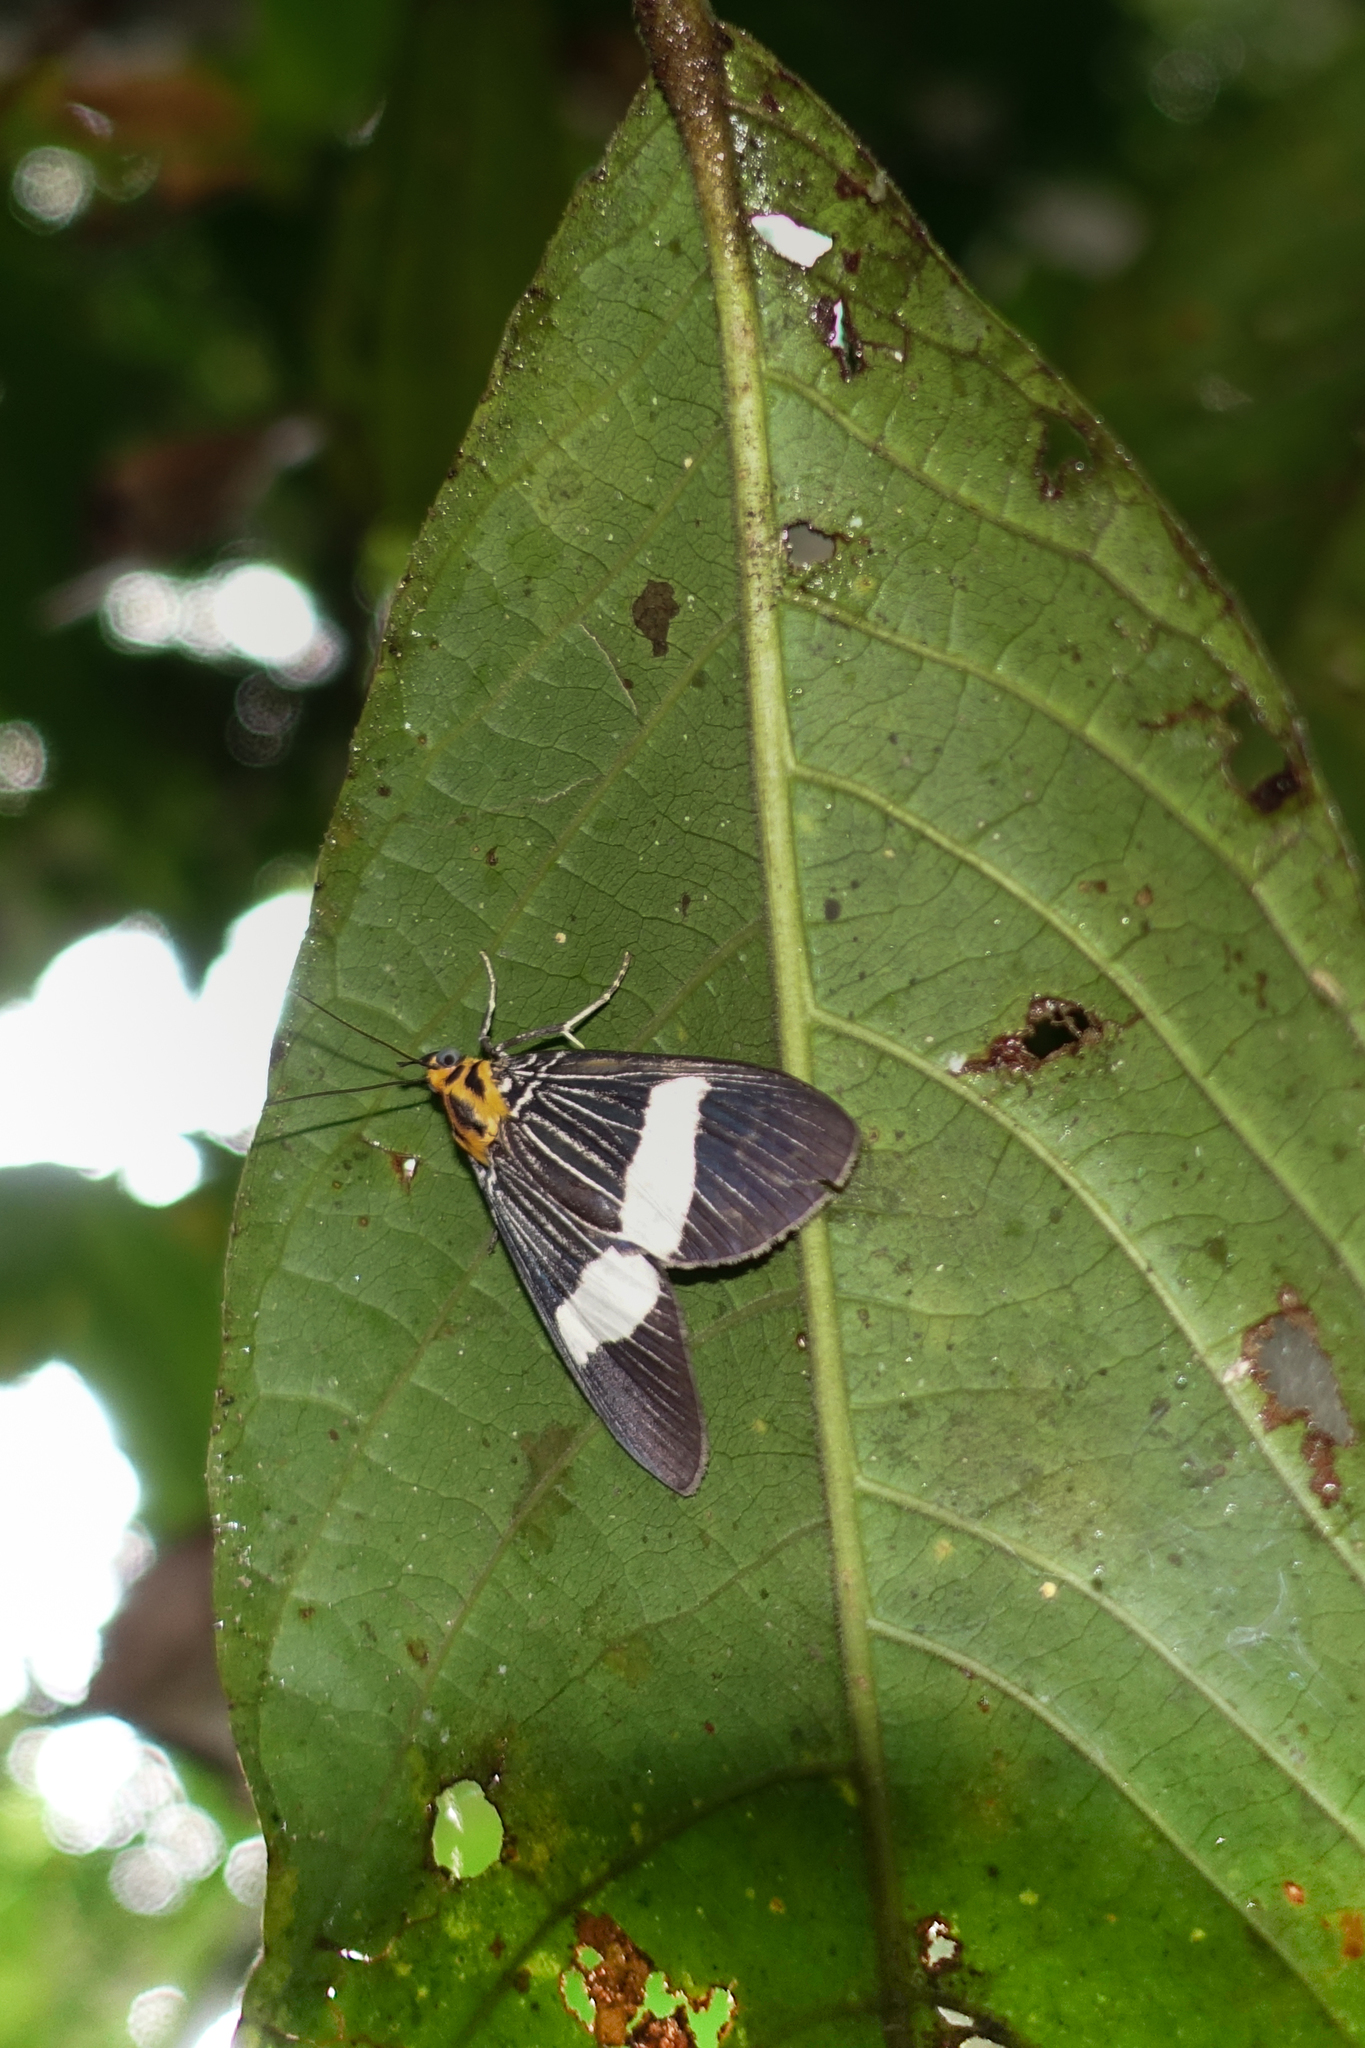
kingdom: Animalia
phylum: Arthropoda
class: Insecta
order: Lepidoptera
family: Erebidae
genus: Asota
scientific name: Asota eusemioides
